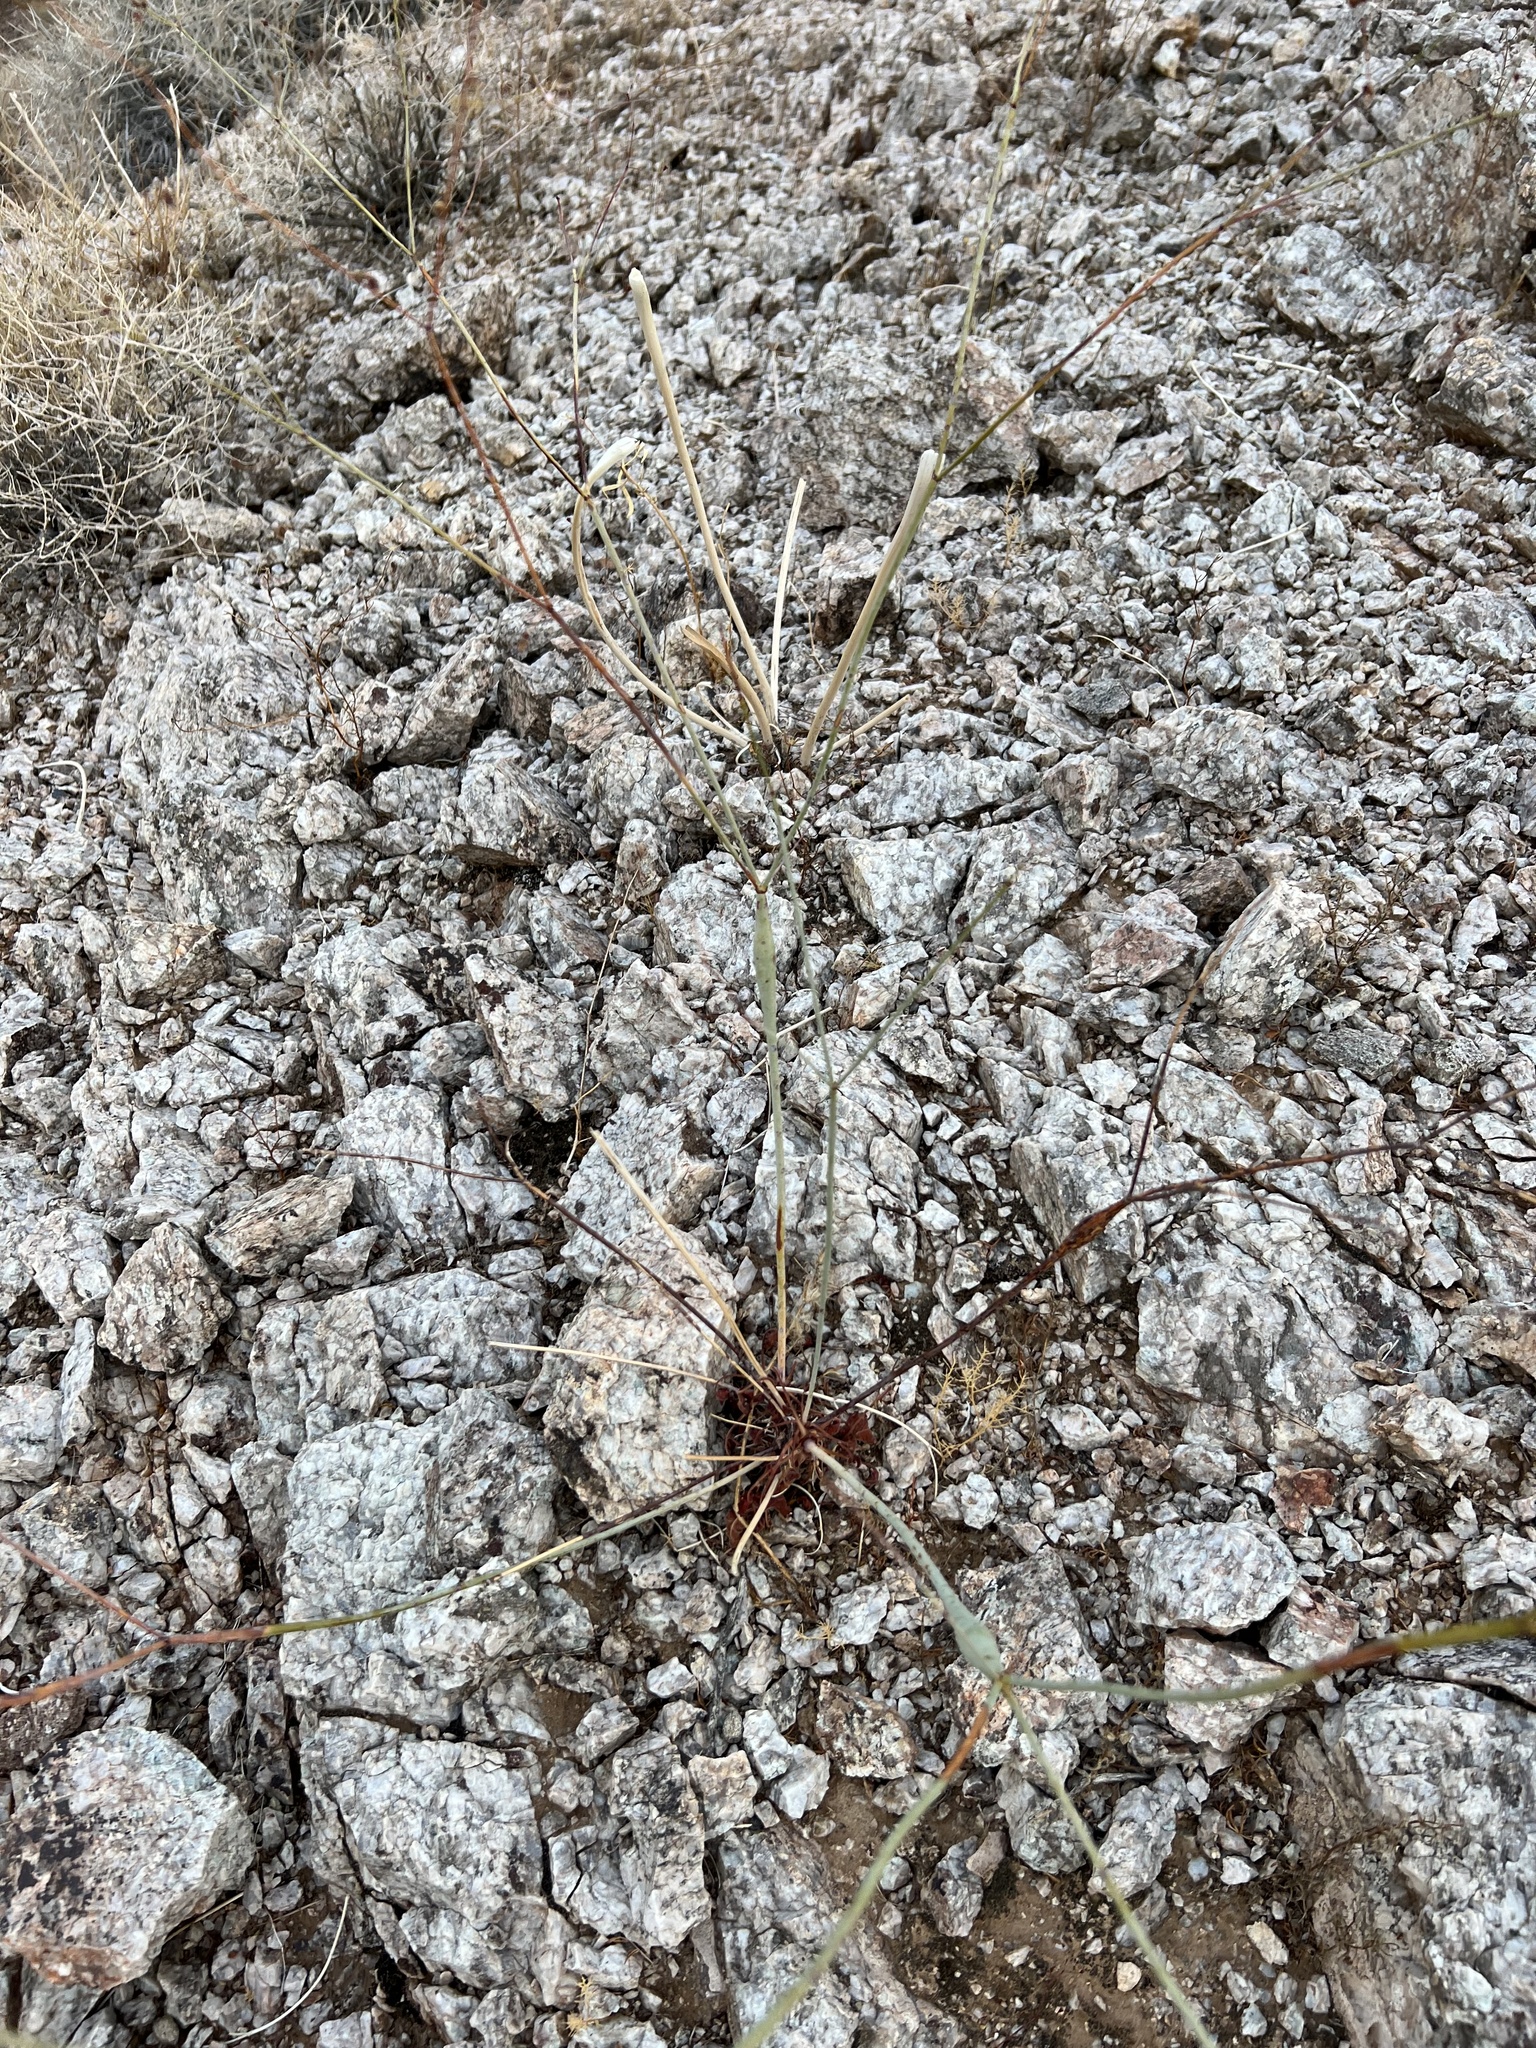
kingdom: Plantae
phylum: Tracheophyta
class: Magnoliopsida
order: Caryophyllales
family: Polygonaceae
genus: Eriogonum
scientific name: Eriogonum inflatum
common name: Desert trumpet
